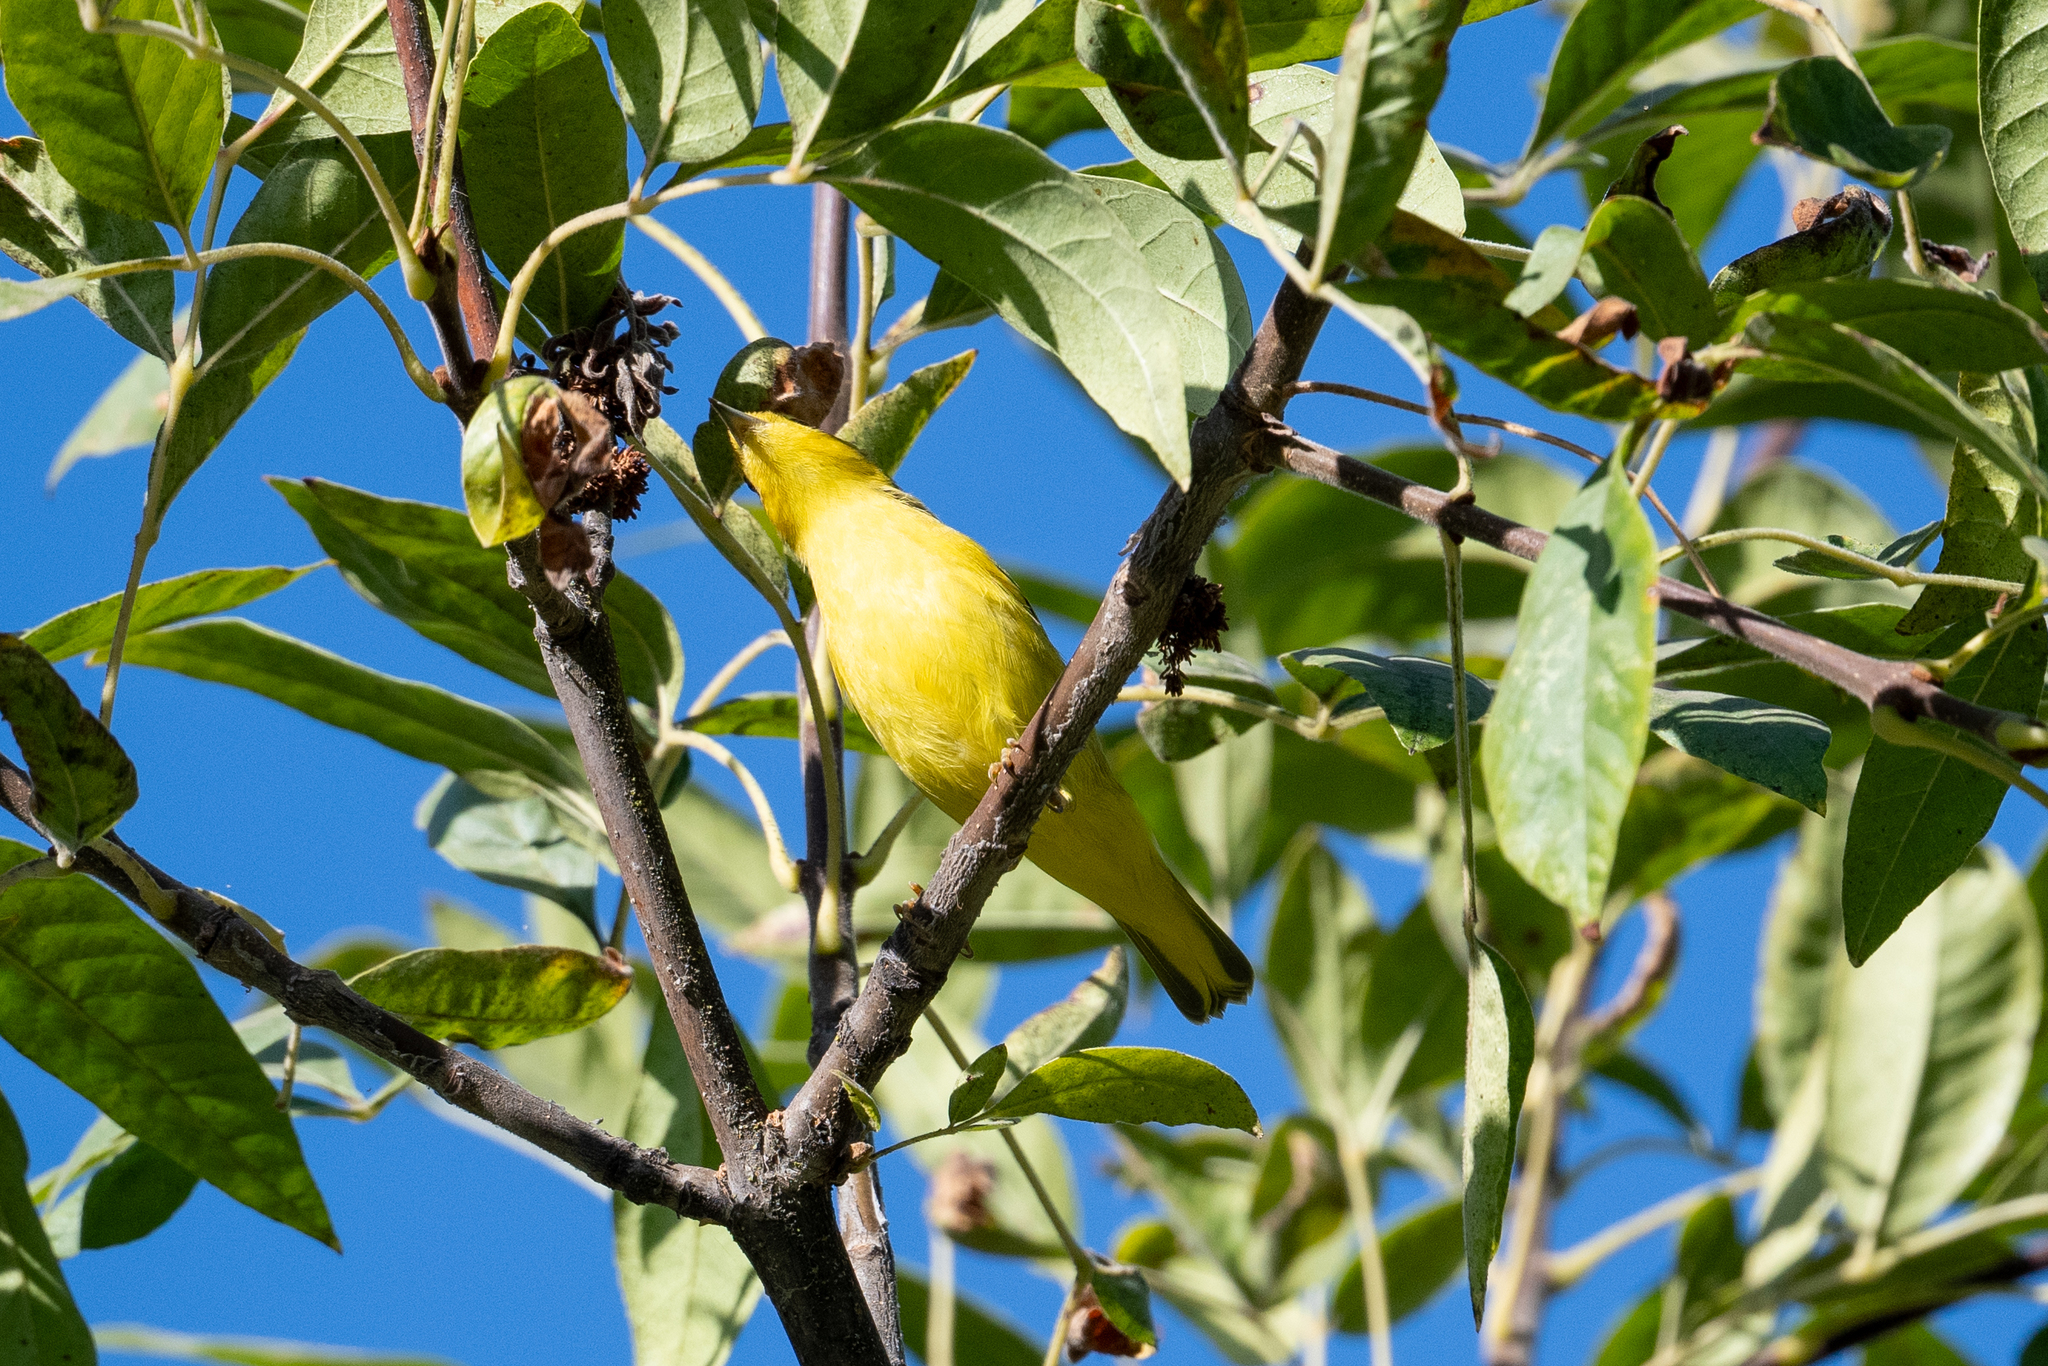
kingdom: Animalia
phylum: Chordata
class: Aves
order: Passeriformes
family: Parulidae
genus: Setophaga
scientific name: Setophaga petechia
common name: Yellow warbler
